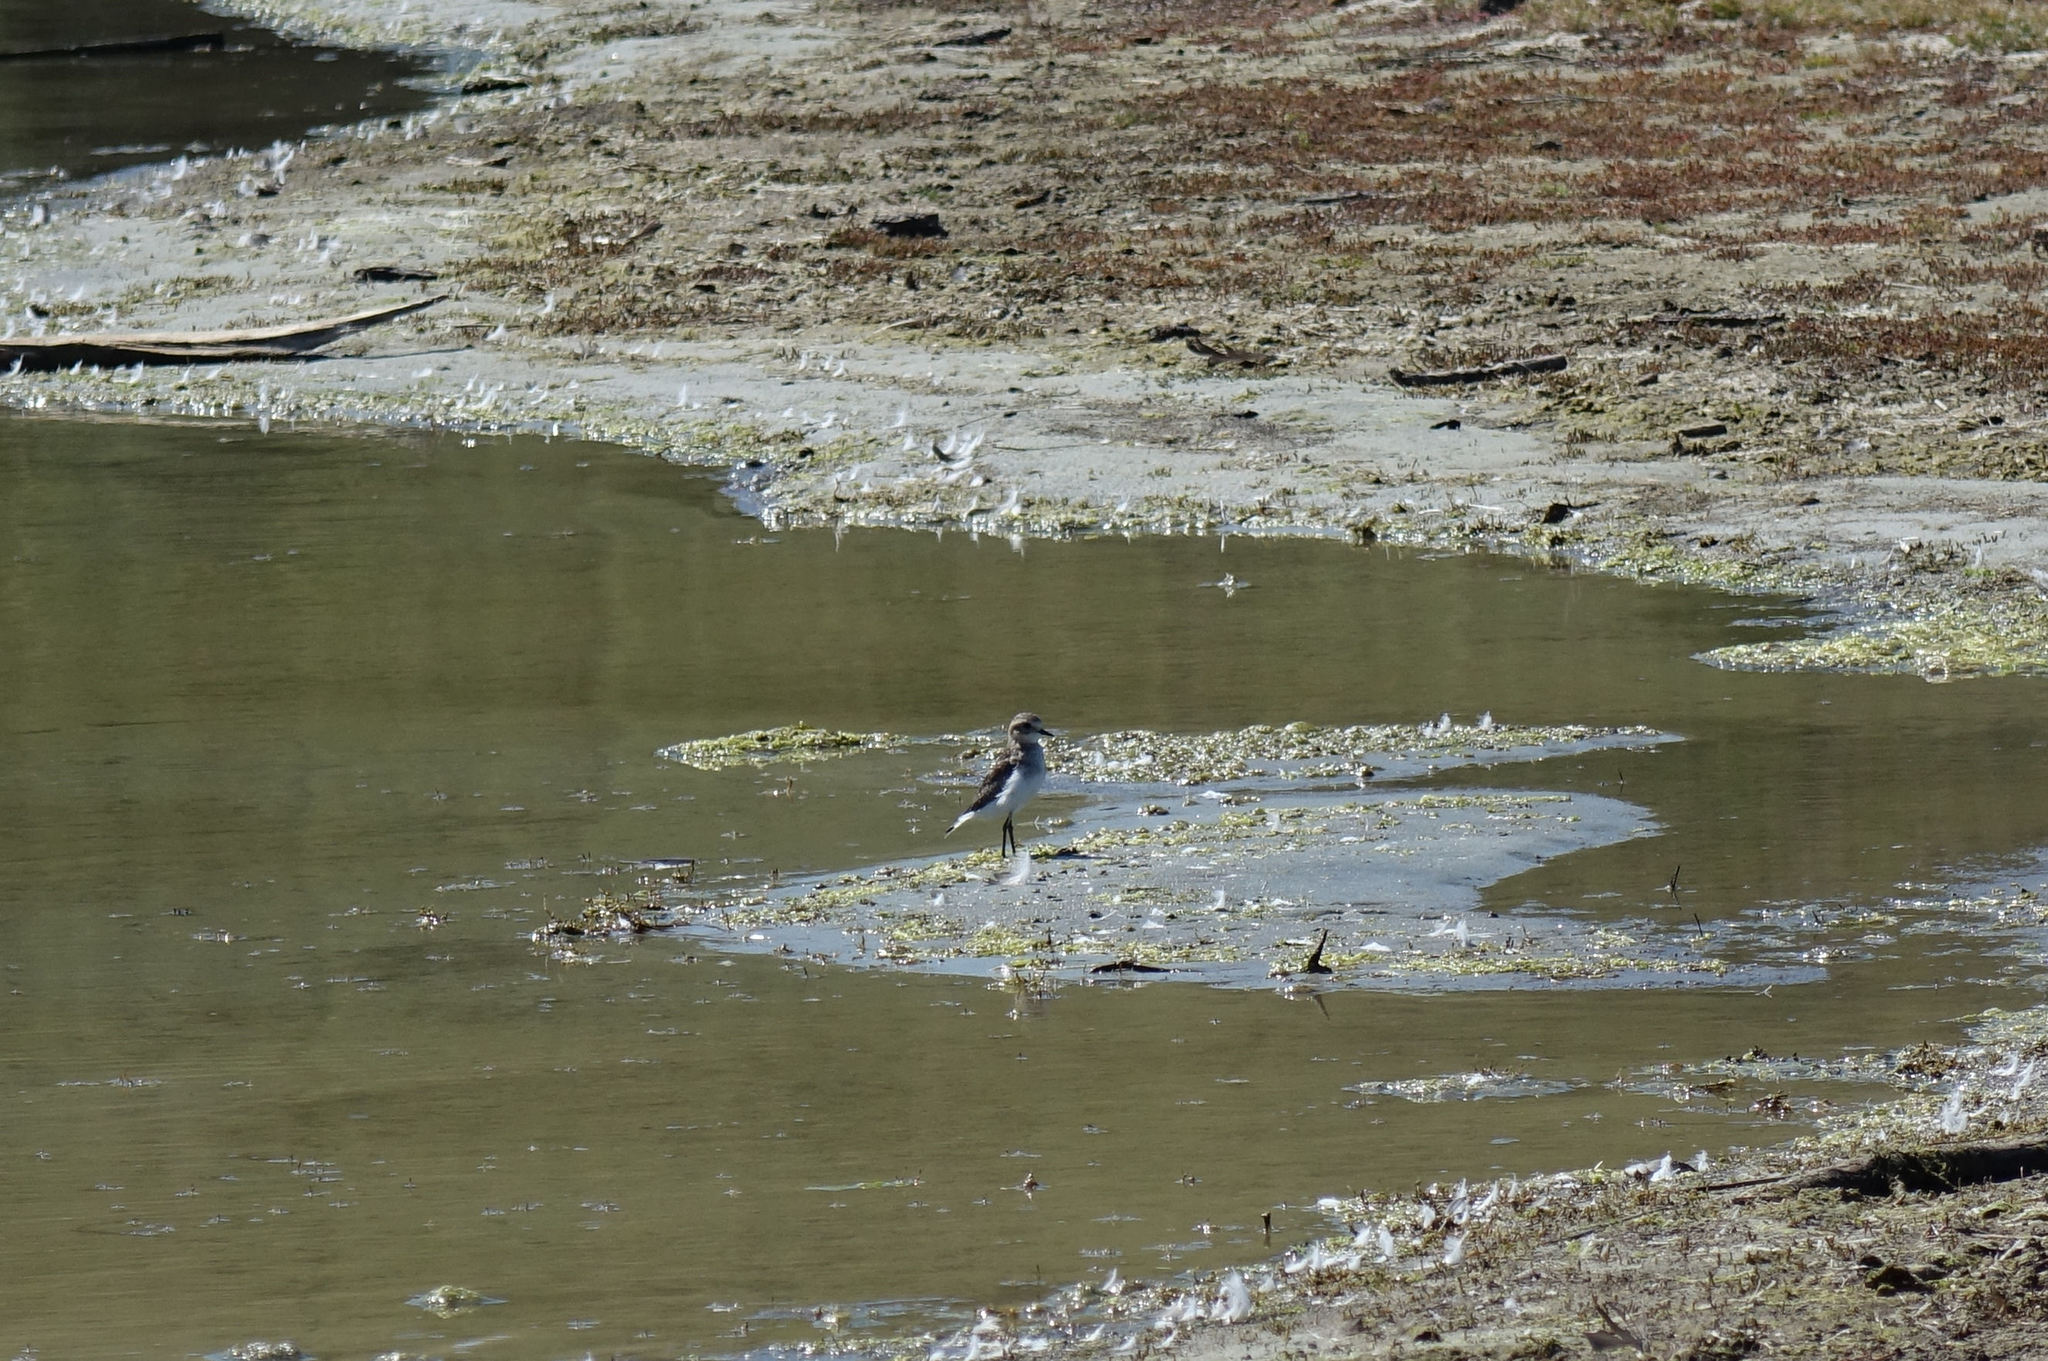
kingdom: Animalia
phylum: Chordata
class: Aves
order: Charadriiformes
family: Charadriidae
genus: Anarhynchus
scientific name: Anarhynchus
